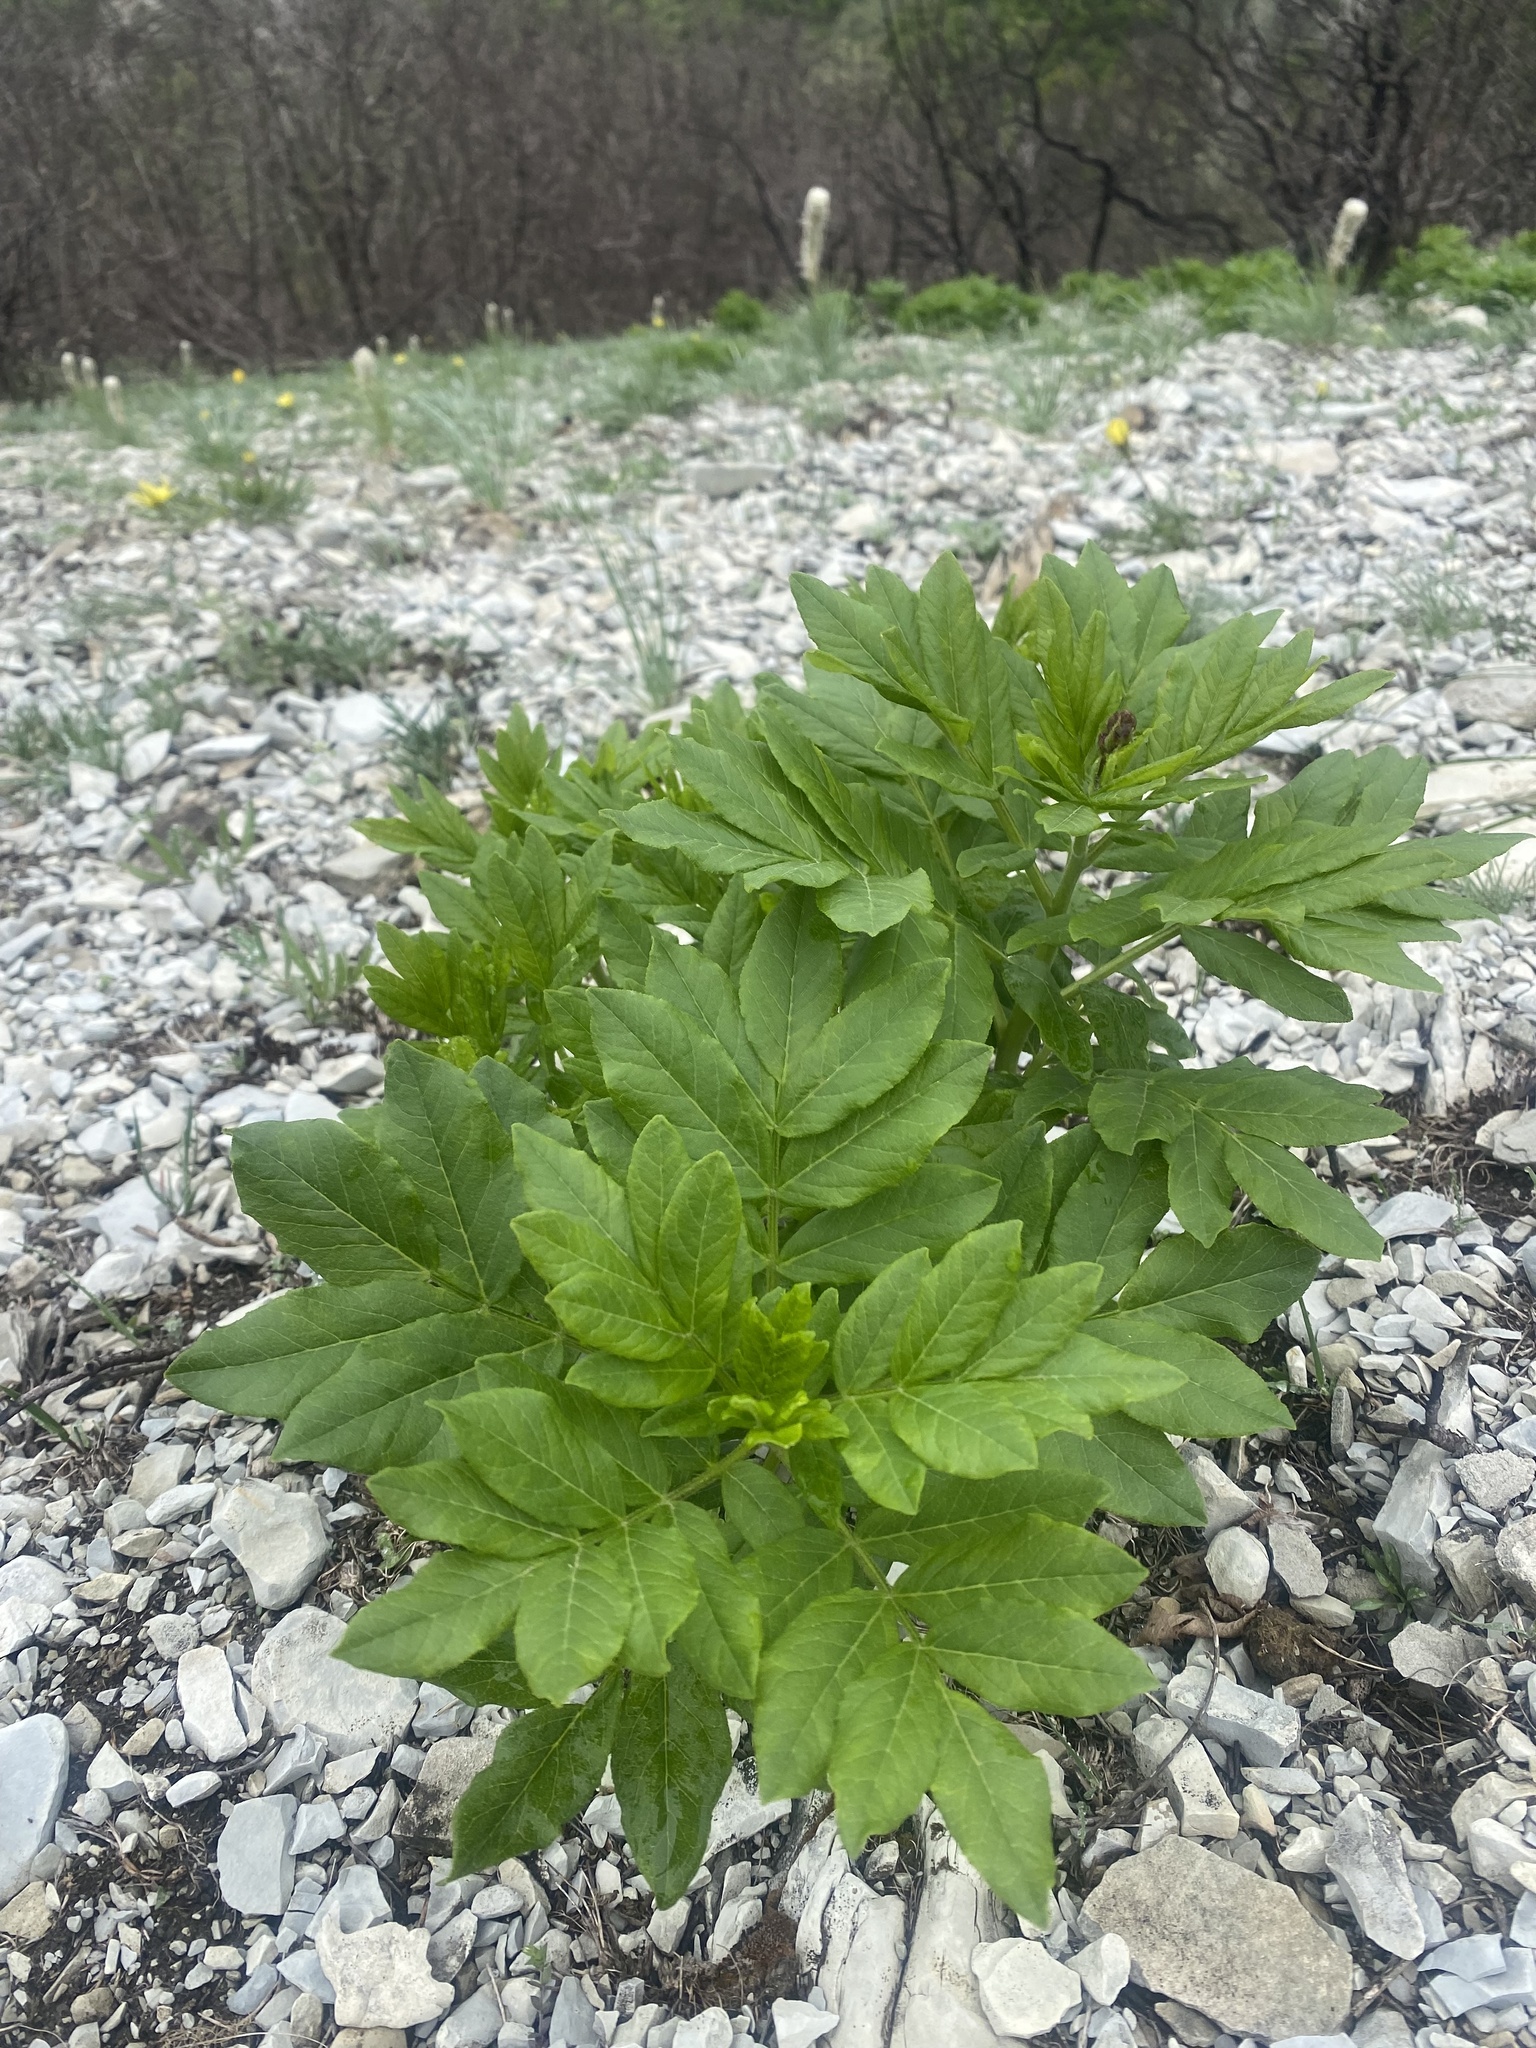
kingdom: Plantae
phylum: Tracheophyta
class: Magnoliopsida
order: Sapindales
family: Rutaceae
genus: Dictamnus
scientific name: Dictamnus albus
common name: Gasplant
